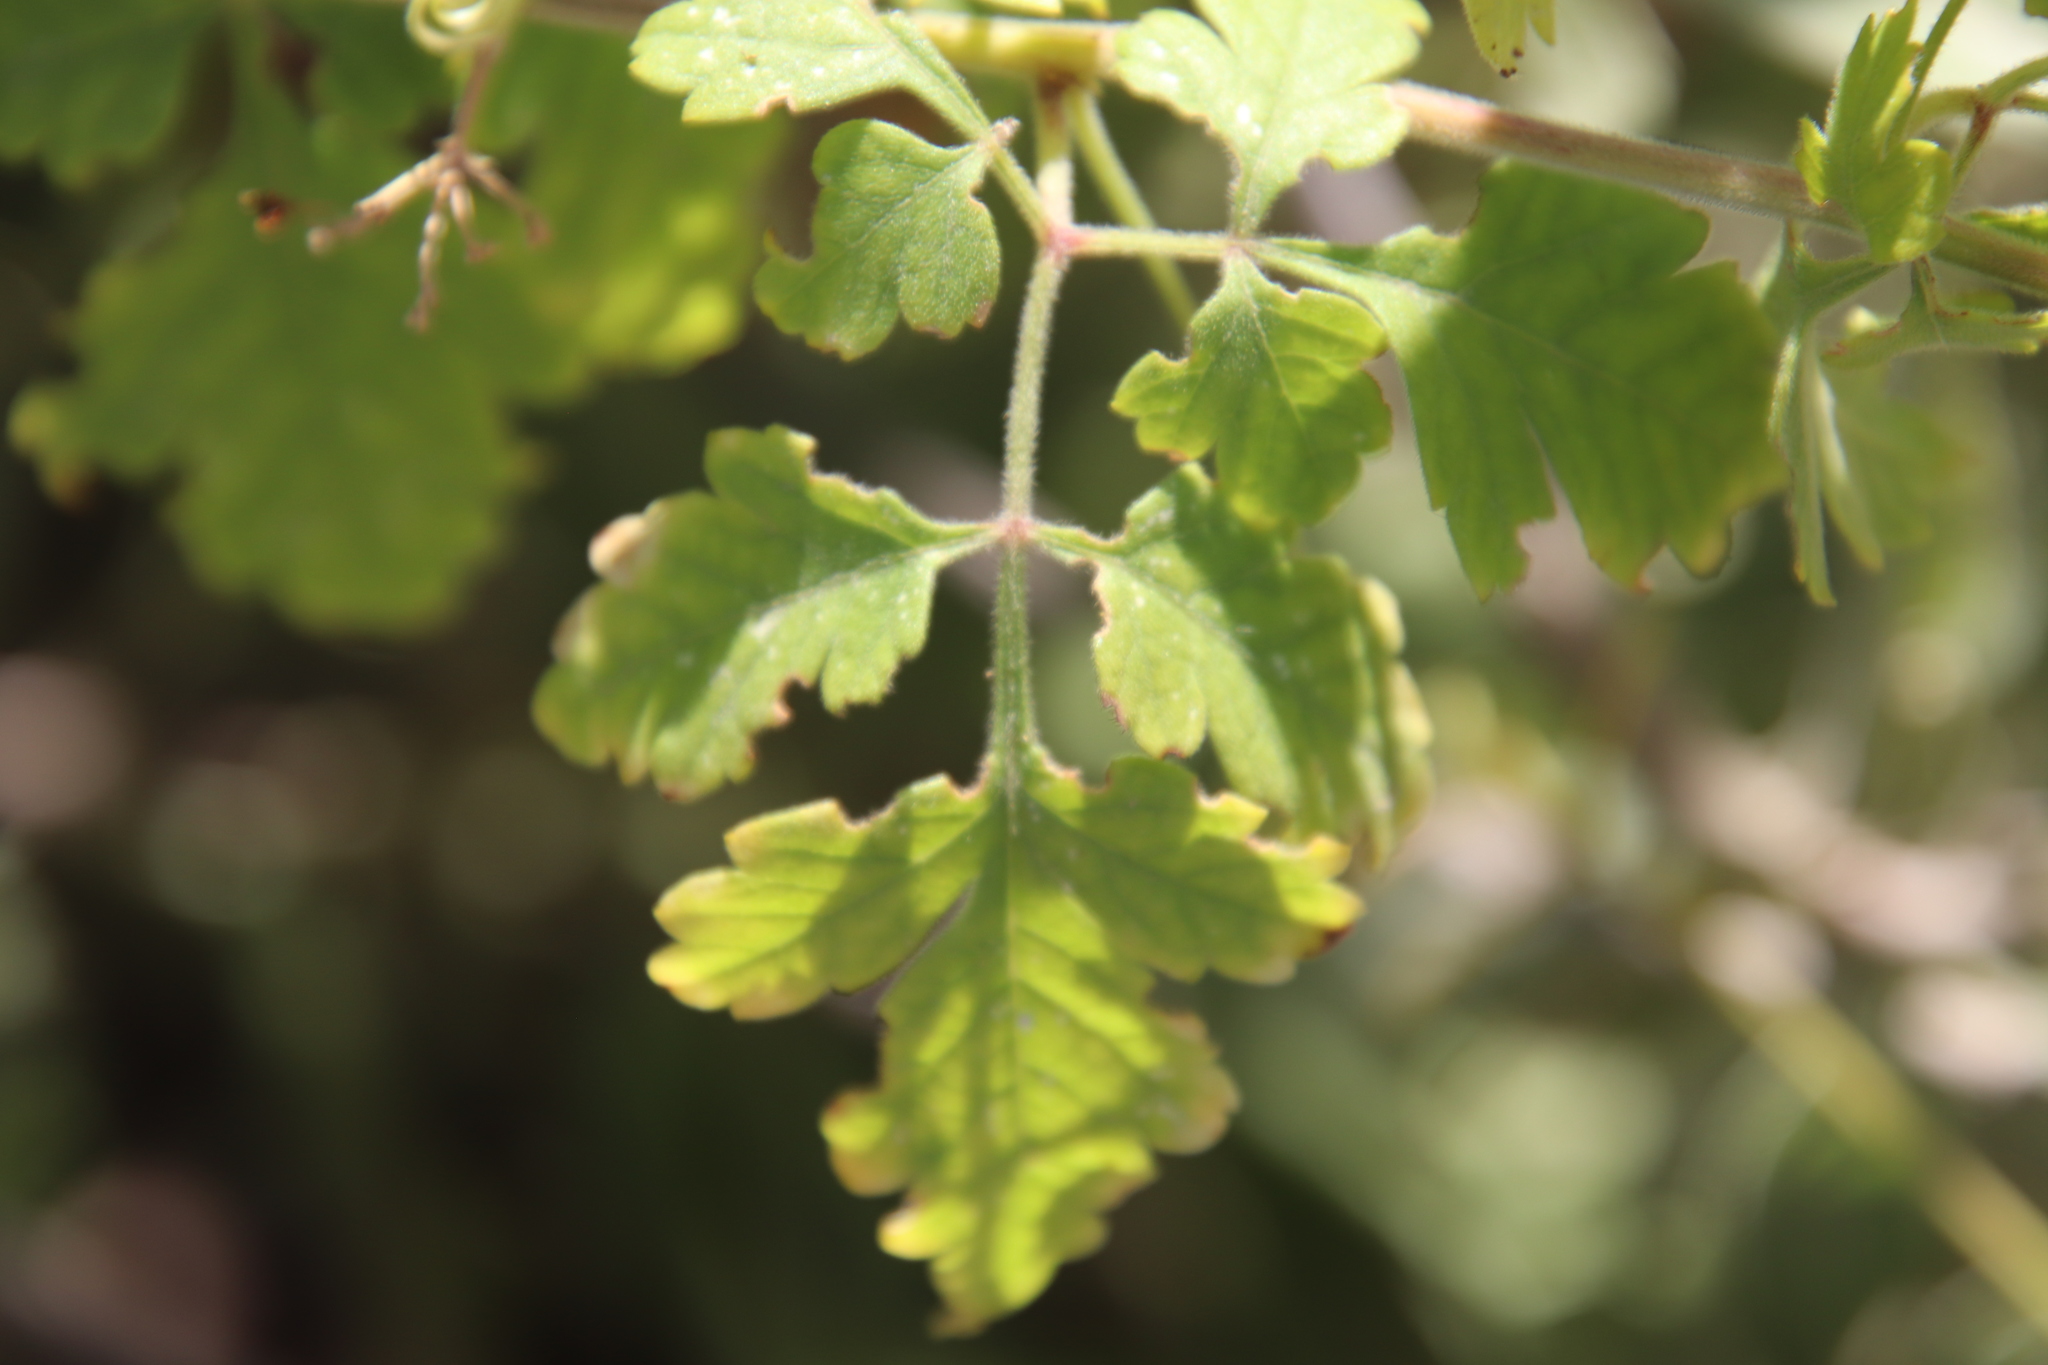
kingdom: Plantae
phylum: Tracheophyta
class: Magnoliopsida
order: Sapindales
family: Sapindaceae
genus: Cardiospermum
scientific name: Cardiospermum corindum
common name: Faux persil
